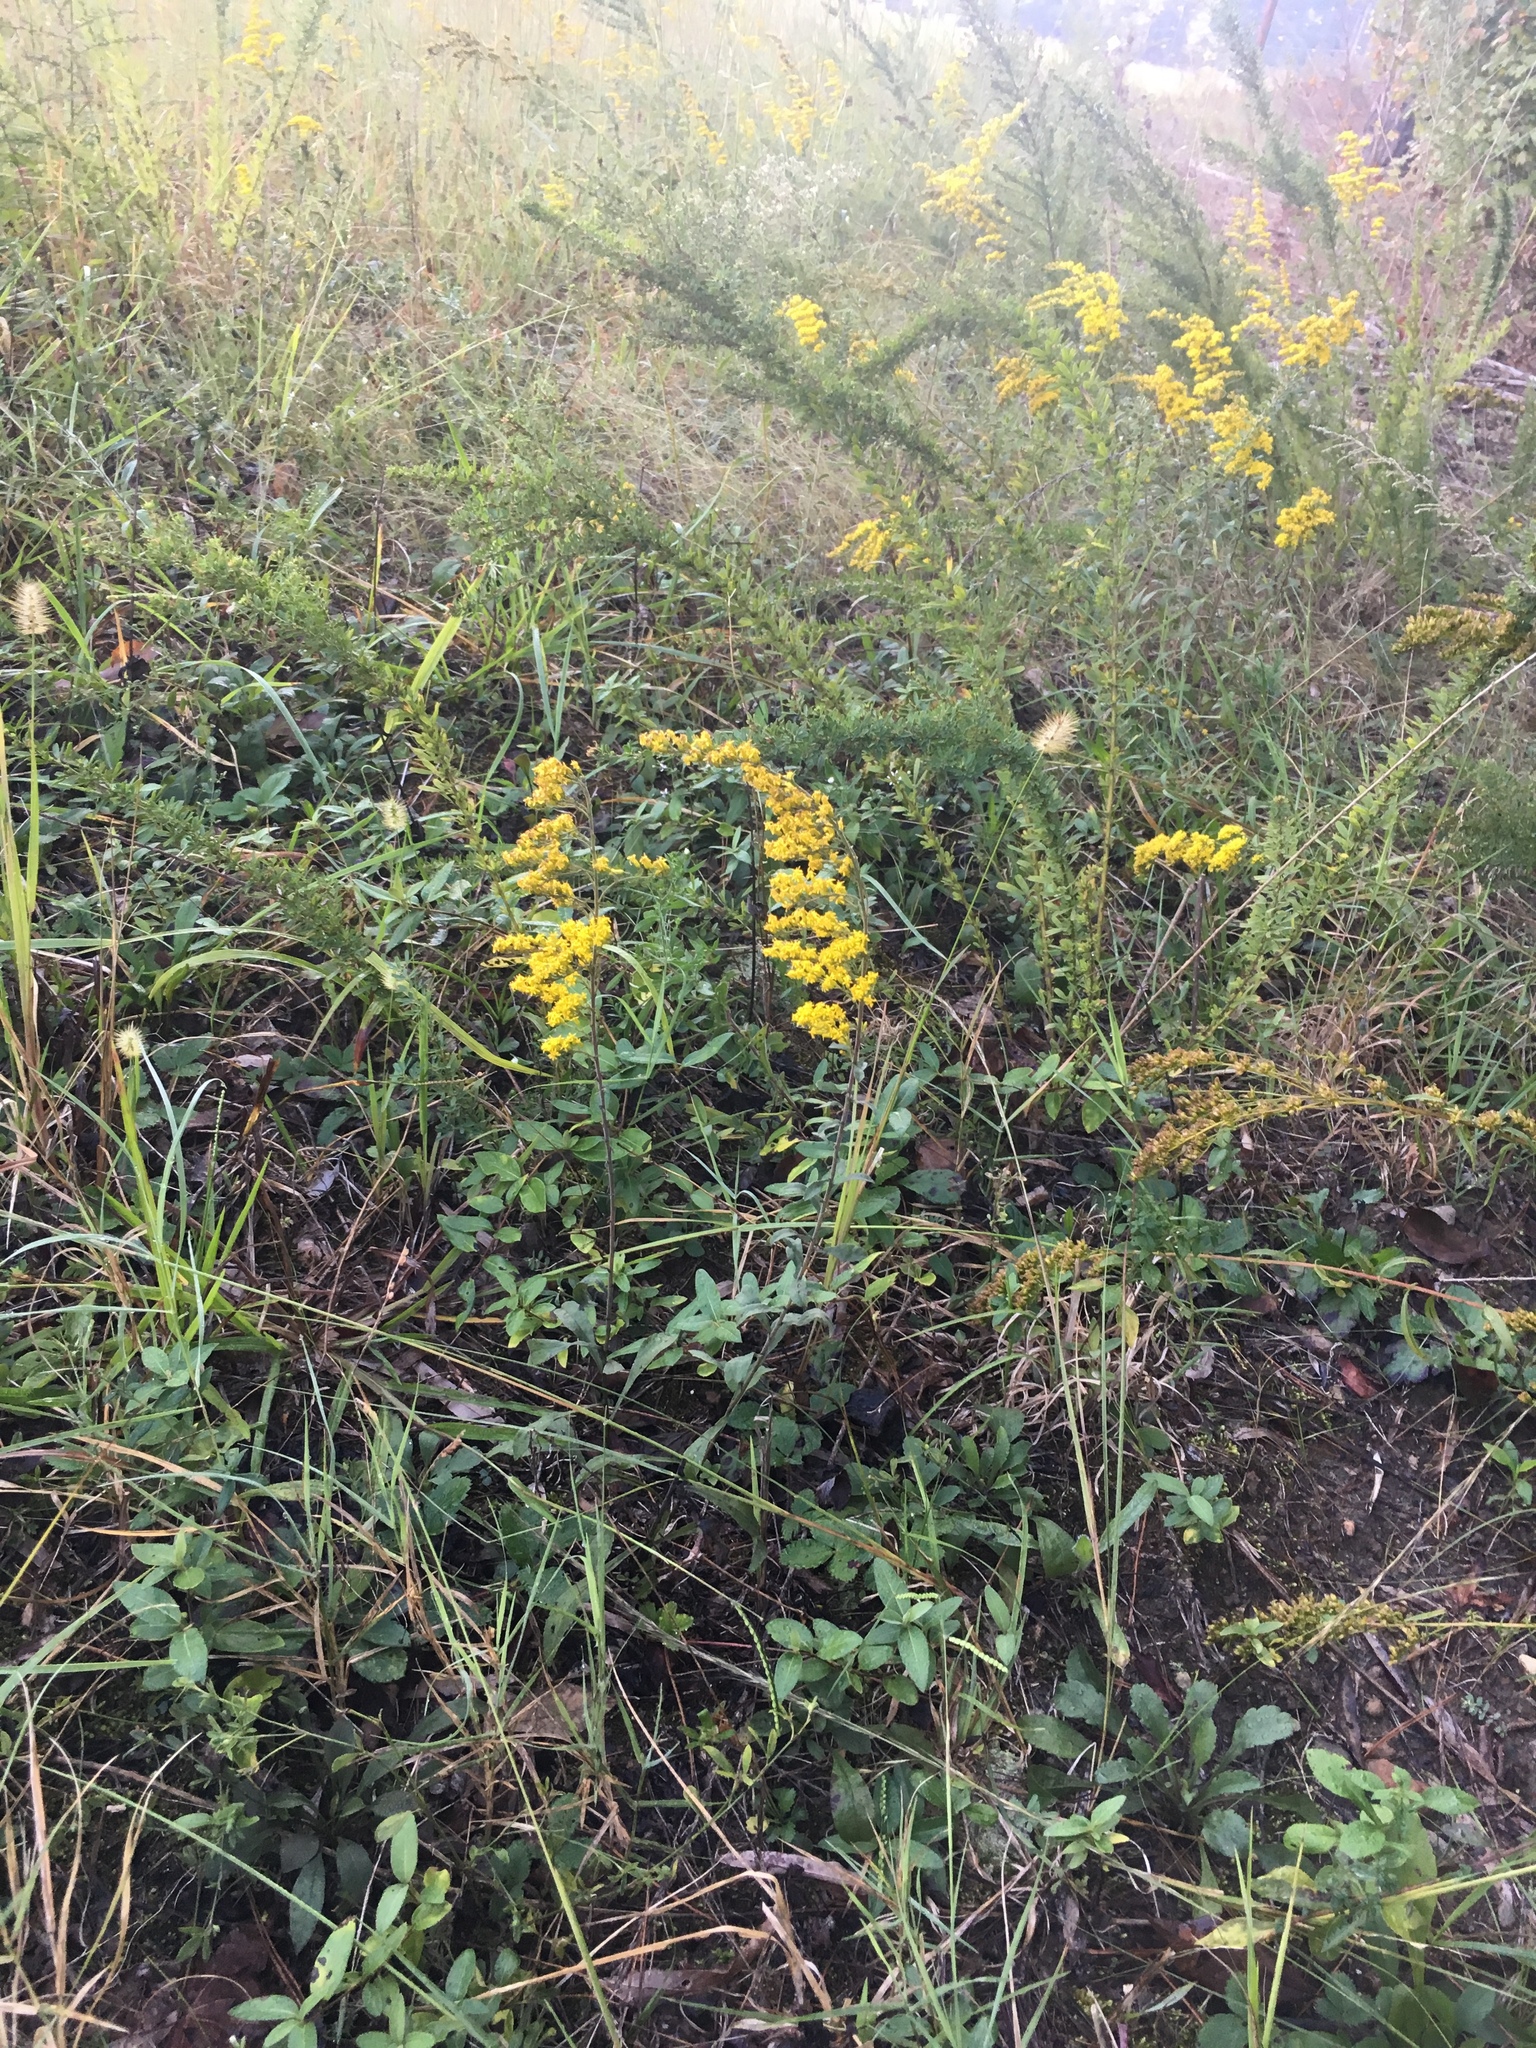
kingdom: Plantae
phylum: Tracheophyta
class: Magnoliopsida
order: Asterales
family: Asteraceae
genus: Solidago
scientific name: Solidago nemoralis
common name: Grey goldenrod
